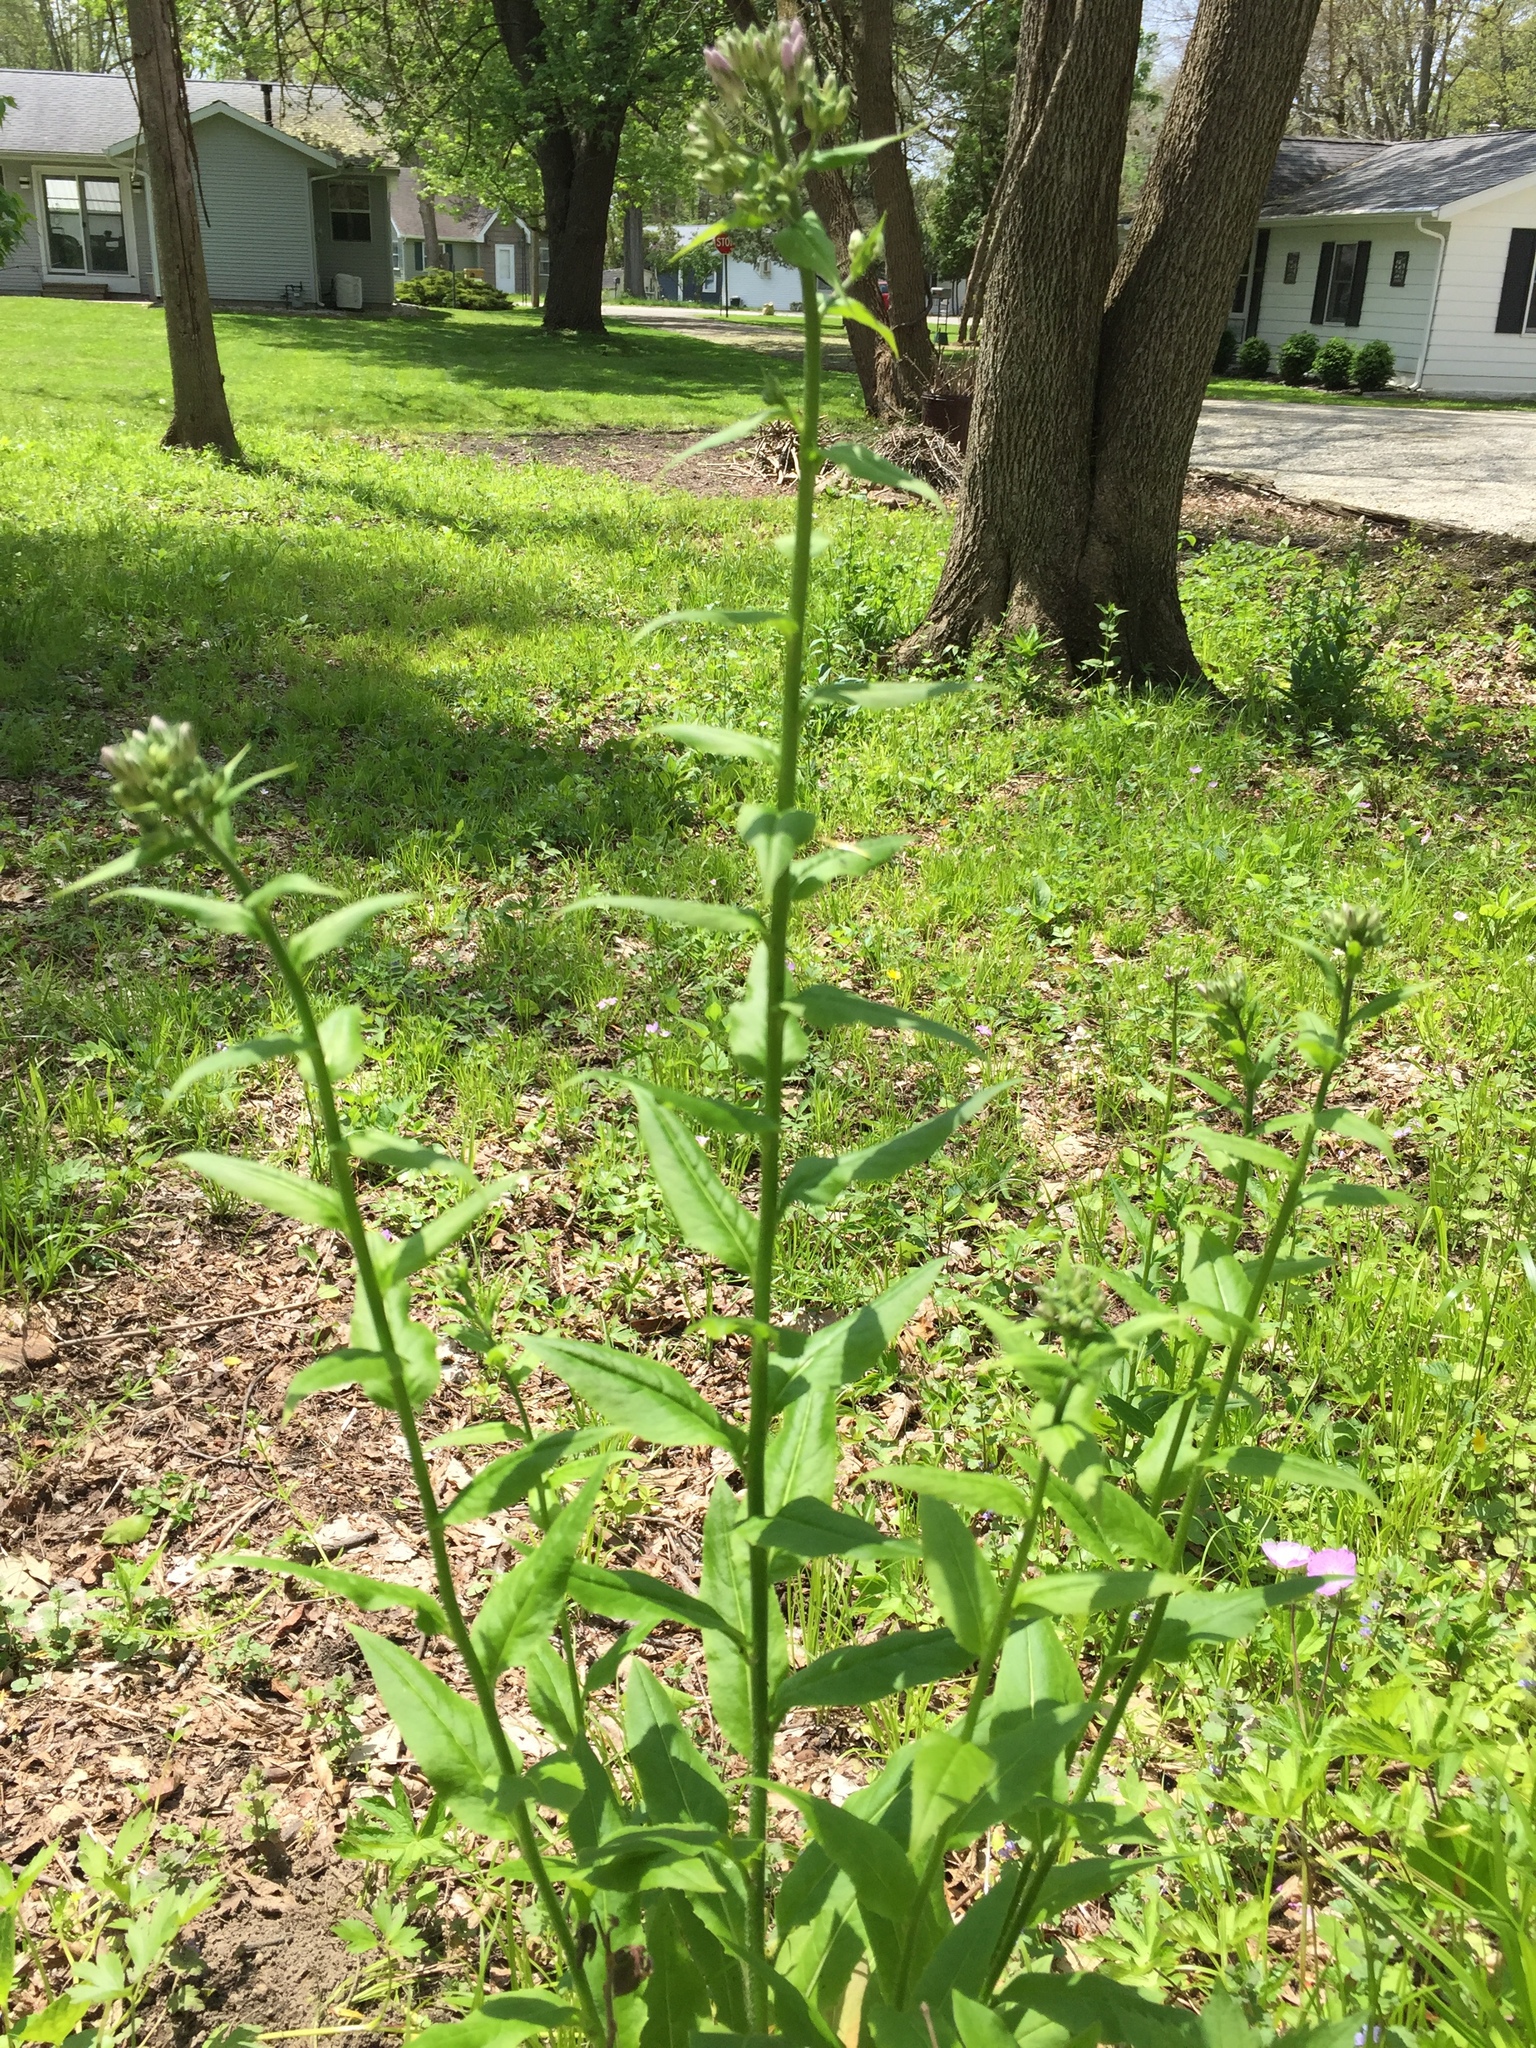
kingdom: Plantae
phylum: Tracheophyta
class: Magnoliopsida
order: Brassicales
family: Brassicaceae
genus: Hesperis
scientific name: Hesperis matronalis
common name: Dame's-violet
